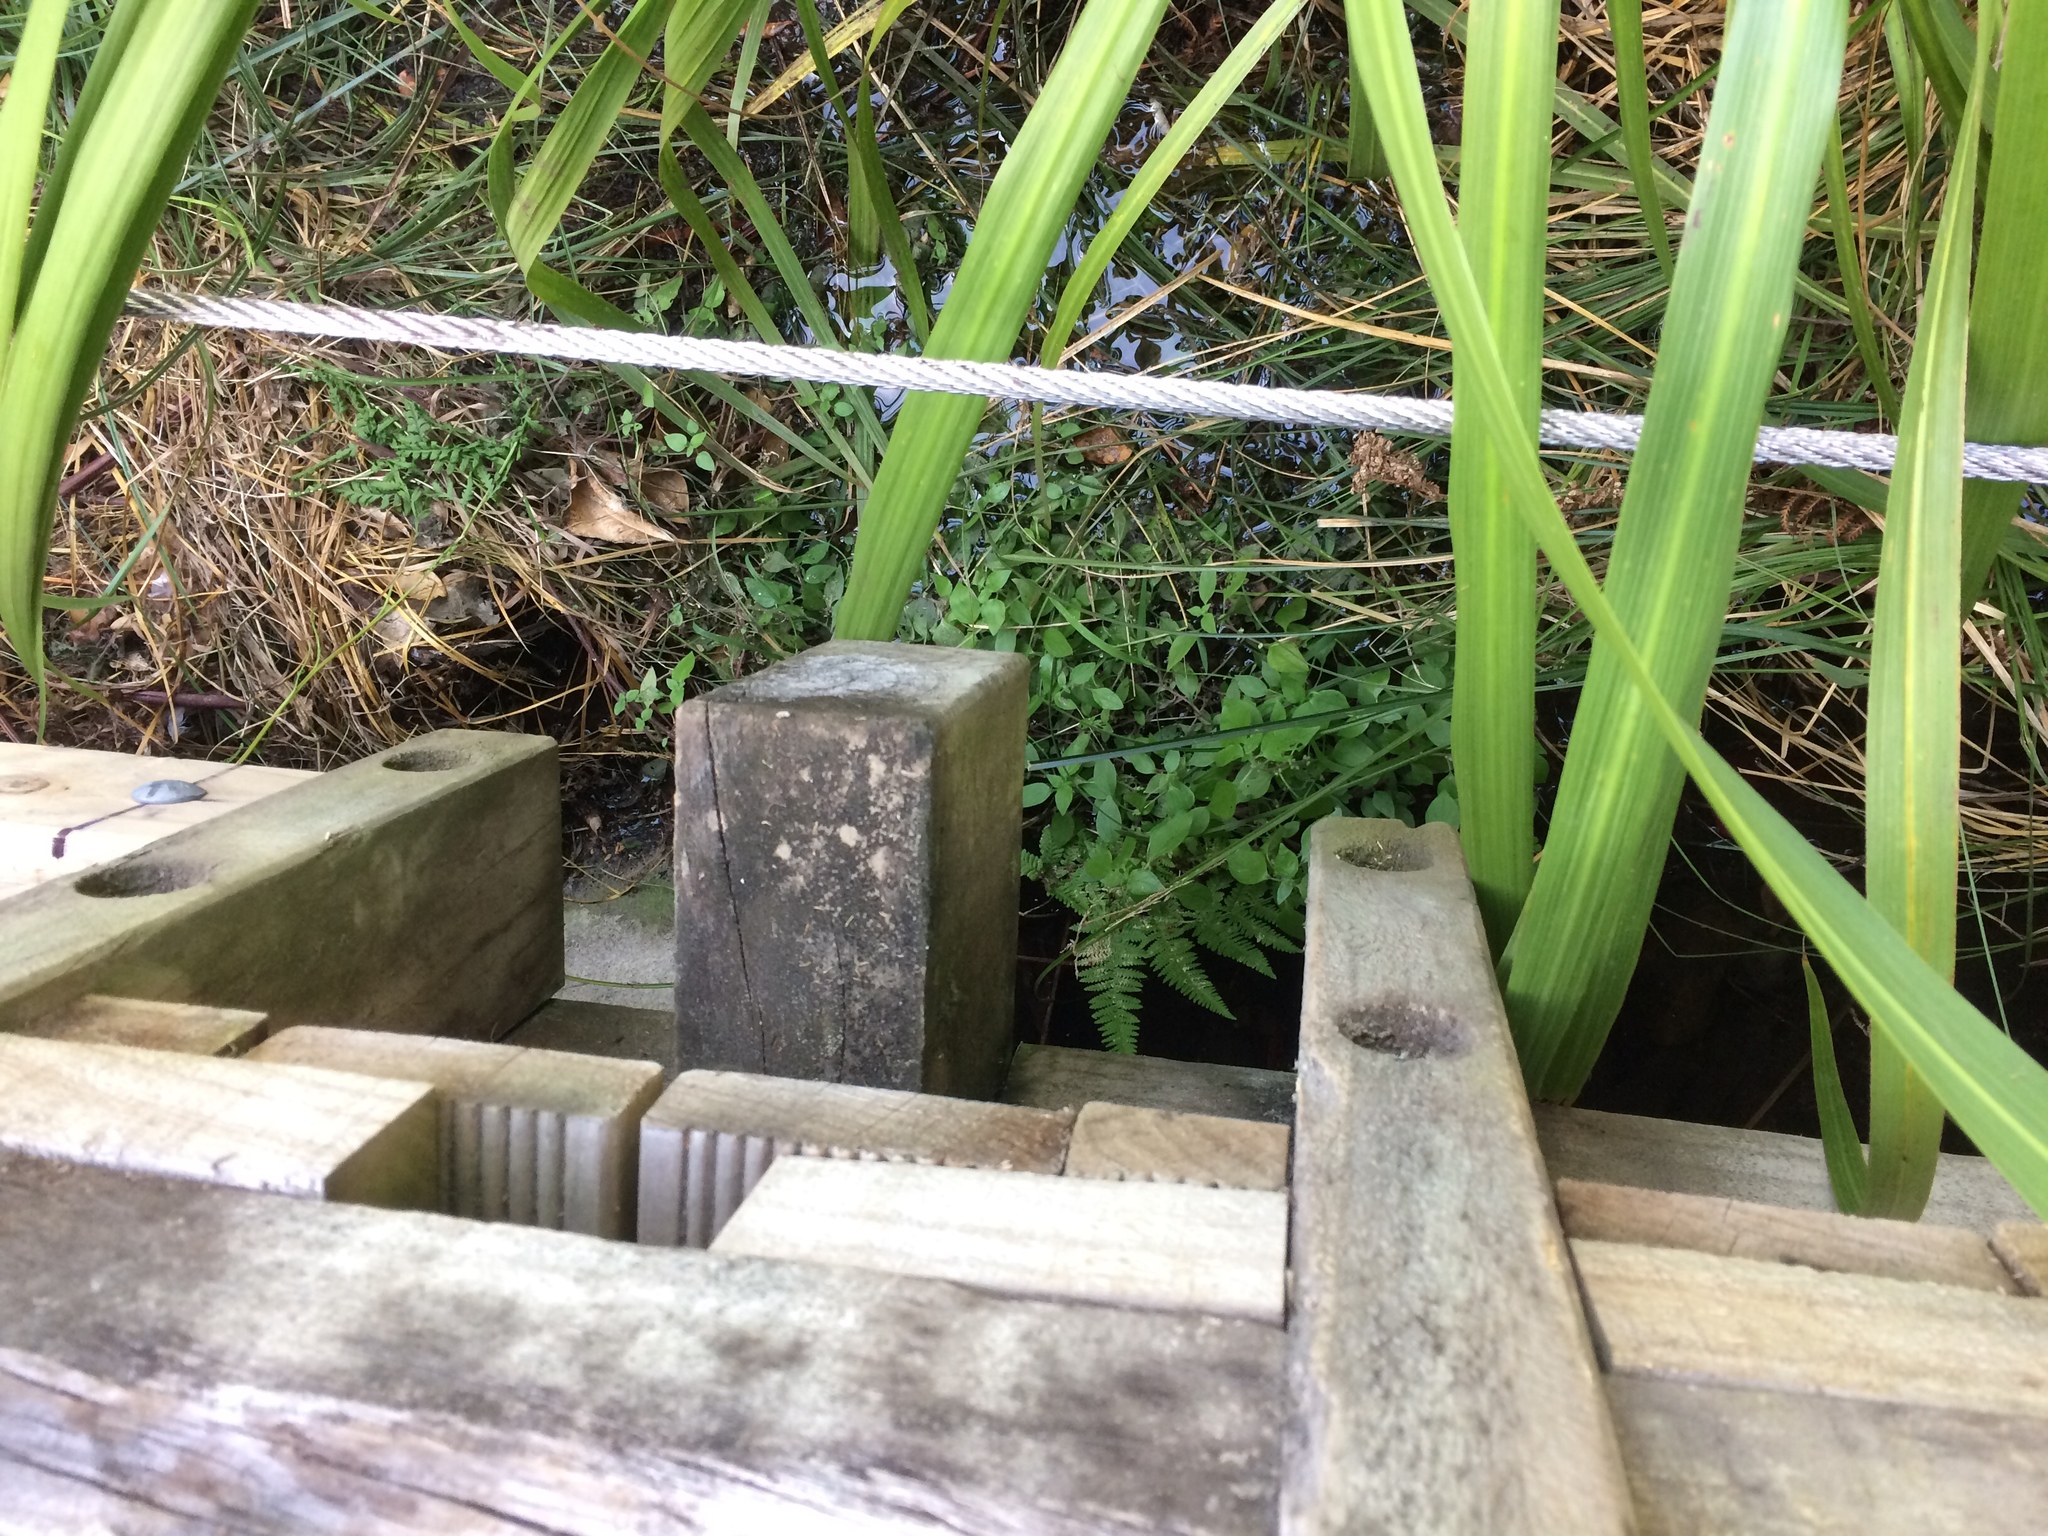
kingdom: Plantae
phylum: Tracheophyta
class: Magnoliopsida
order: Rosales
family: Urticaceae
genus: Parietaria
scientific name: Parietaria judaica
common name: Pellitory-of-the-wall
